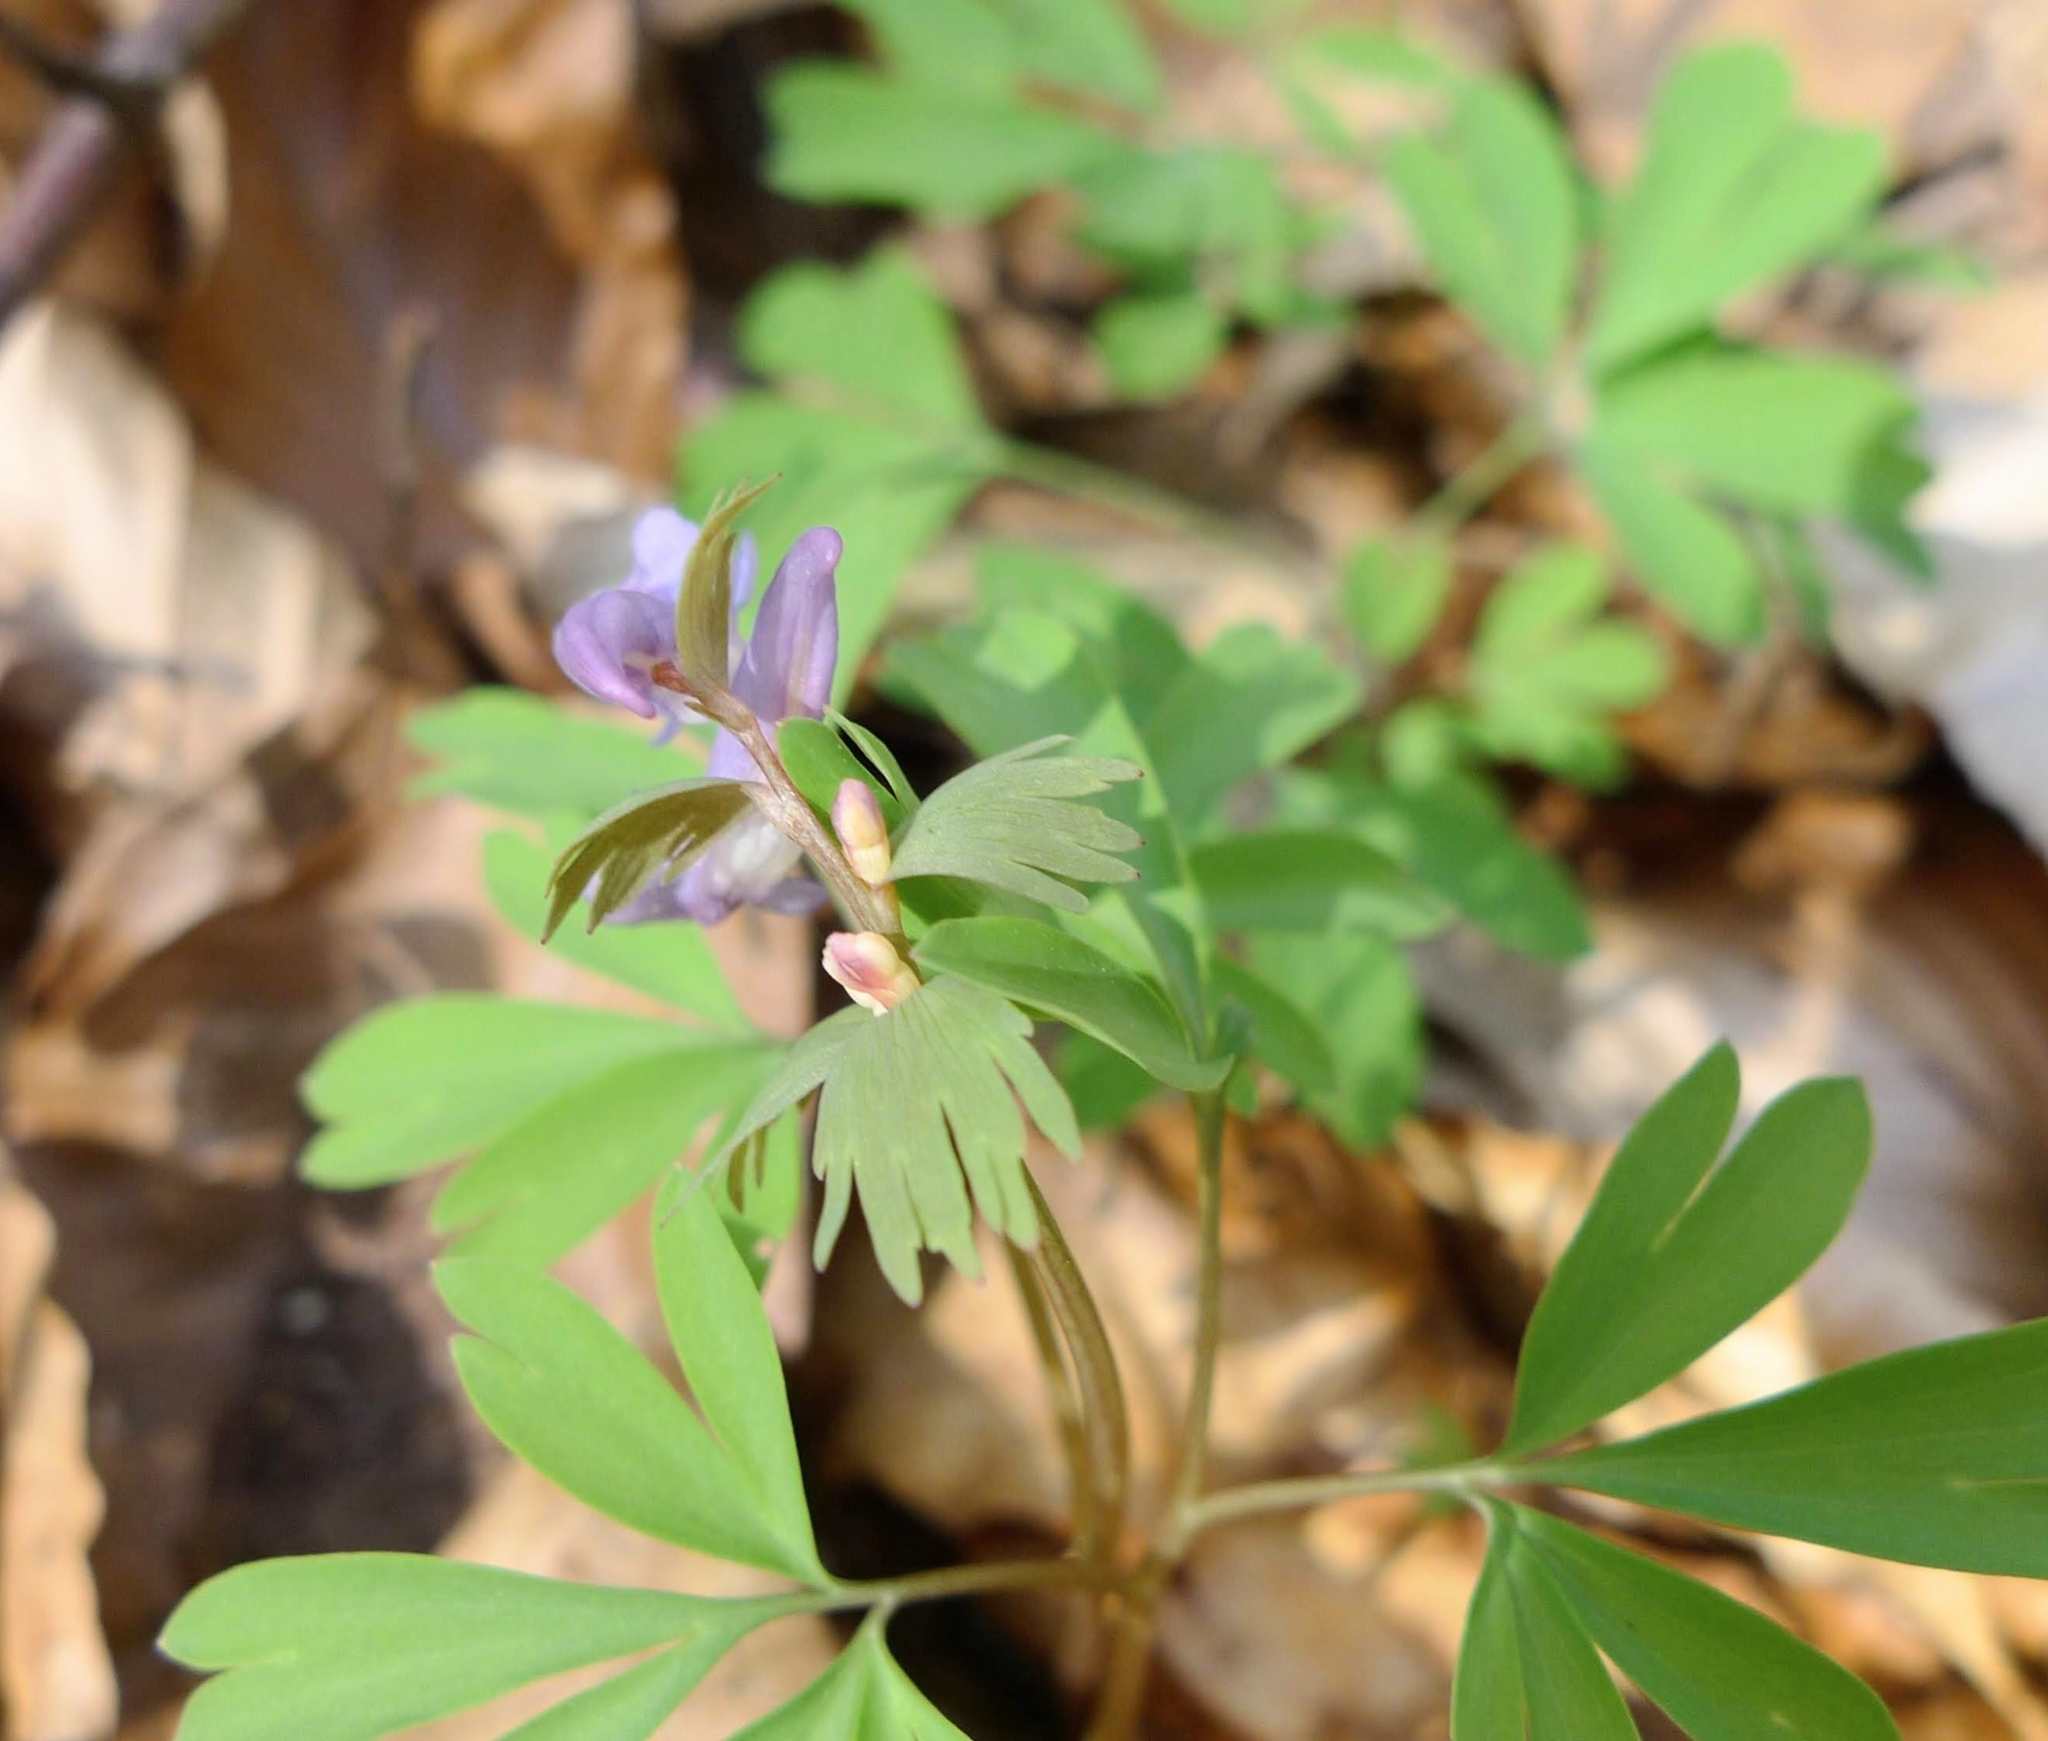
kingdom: Plantae
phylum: Tracheophyta
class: Magnoliopsida
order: Ranunculales
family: Papaveraceae
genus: Corydalis
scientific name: Corydalis solida
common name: Bird-in-a-bush
